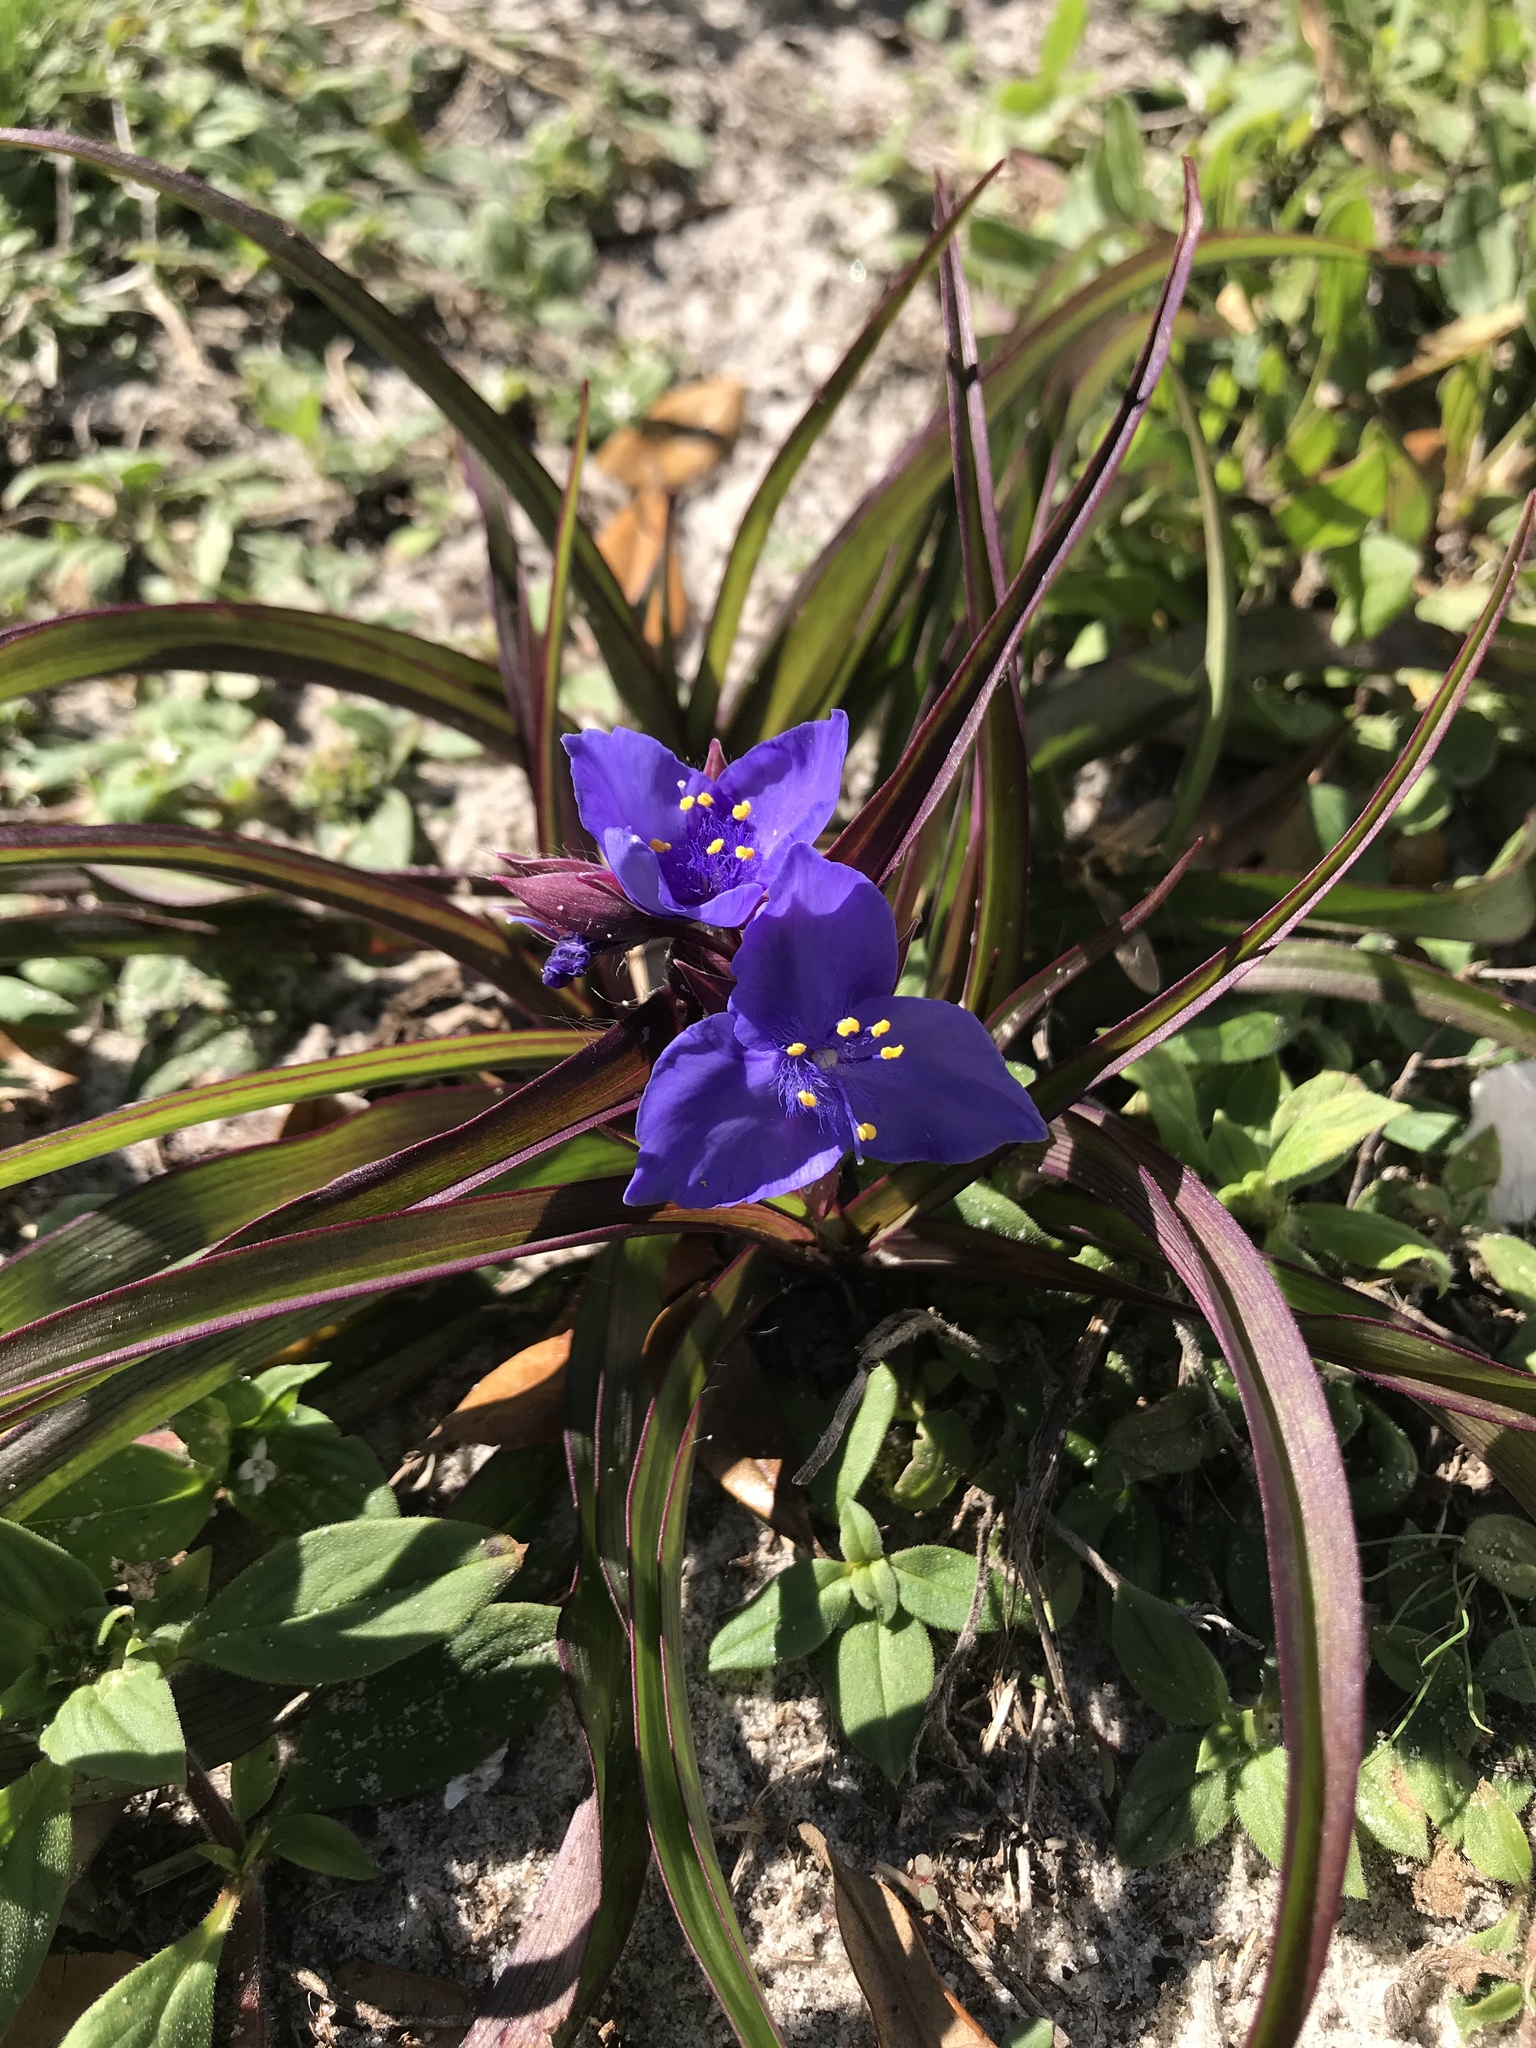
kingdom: Plantae
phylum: Tracheophyta
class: Liliopsida
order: Commelinales
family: Commelinaceae
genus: Tradescantia
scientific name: Tradescantia ohiensis
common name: Ohio spiderwort
